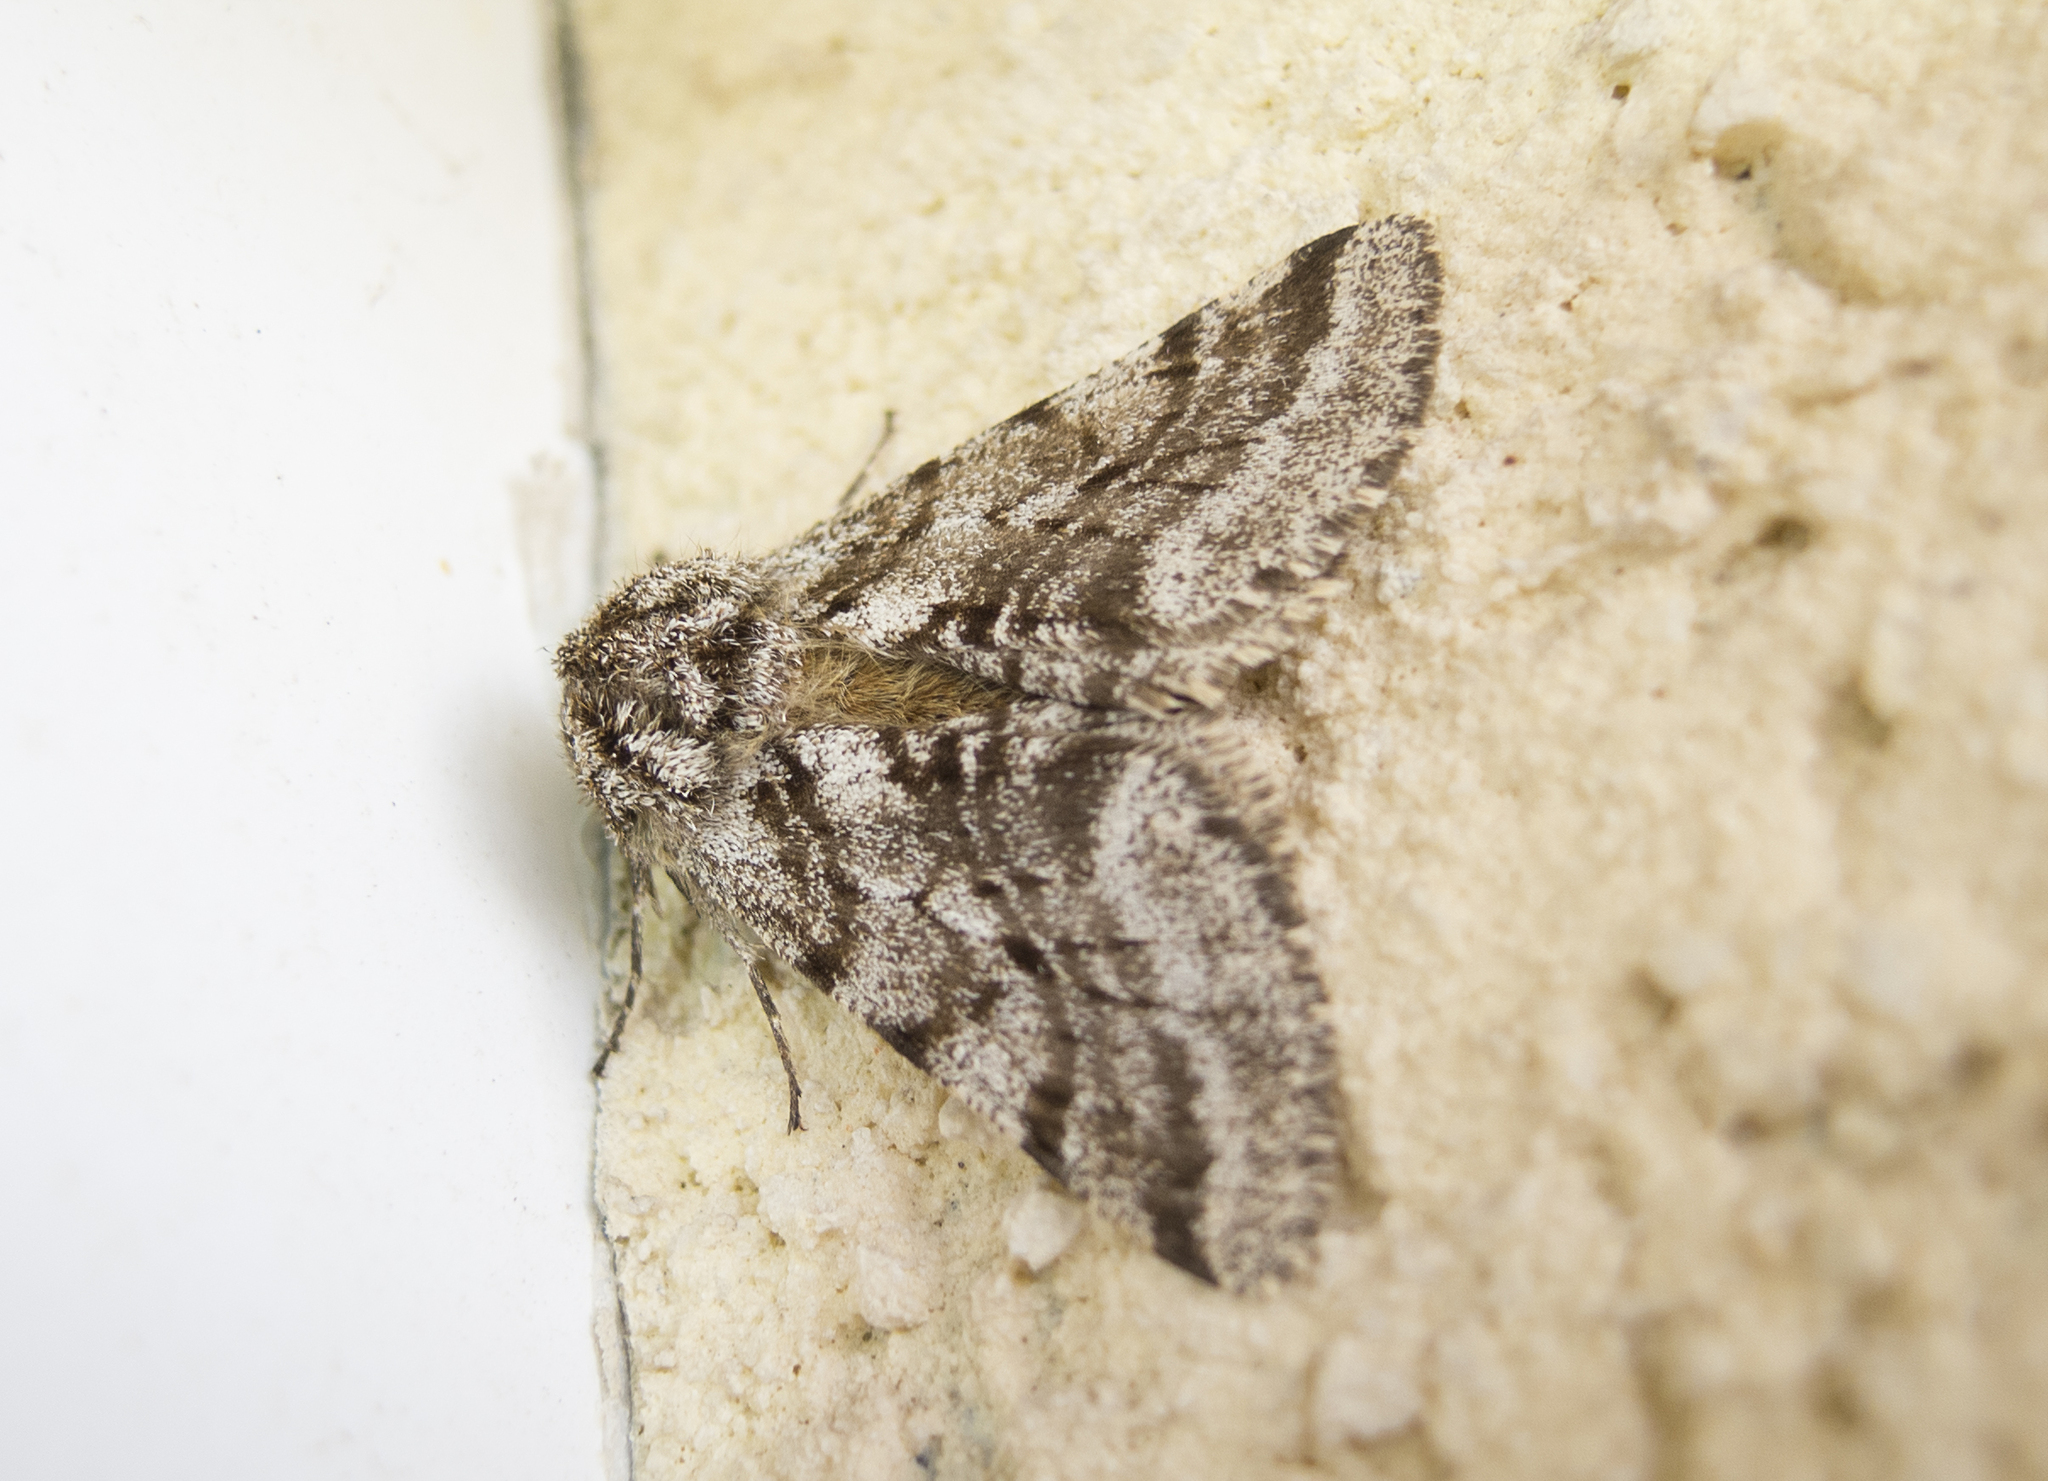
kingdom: Animalia
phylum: Arthropoda
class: Insecta
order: Lepidoptera
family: Geometridae
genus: Lycia
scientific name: Lycia hirtaria
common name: Brindled beauty
